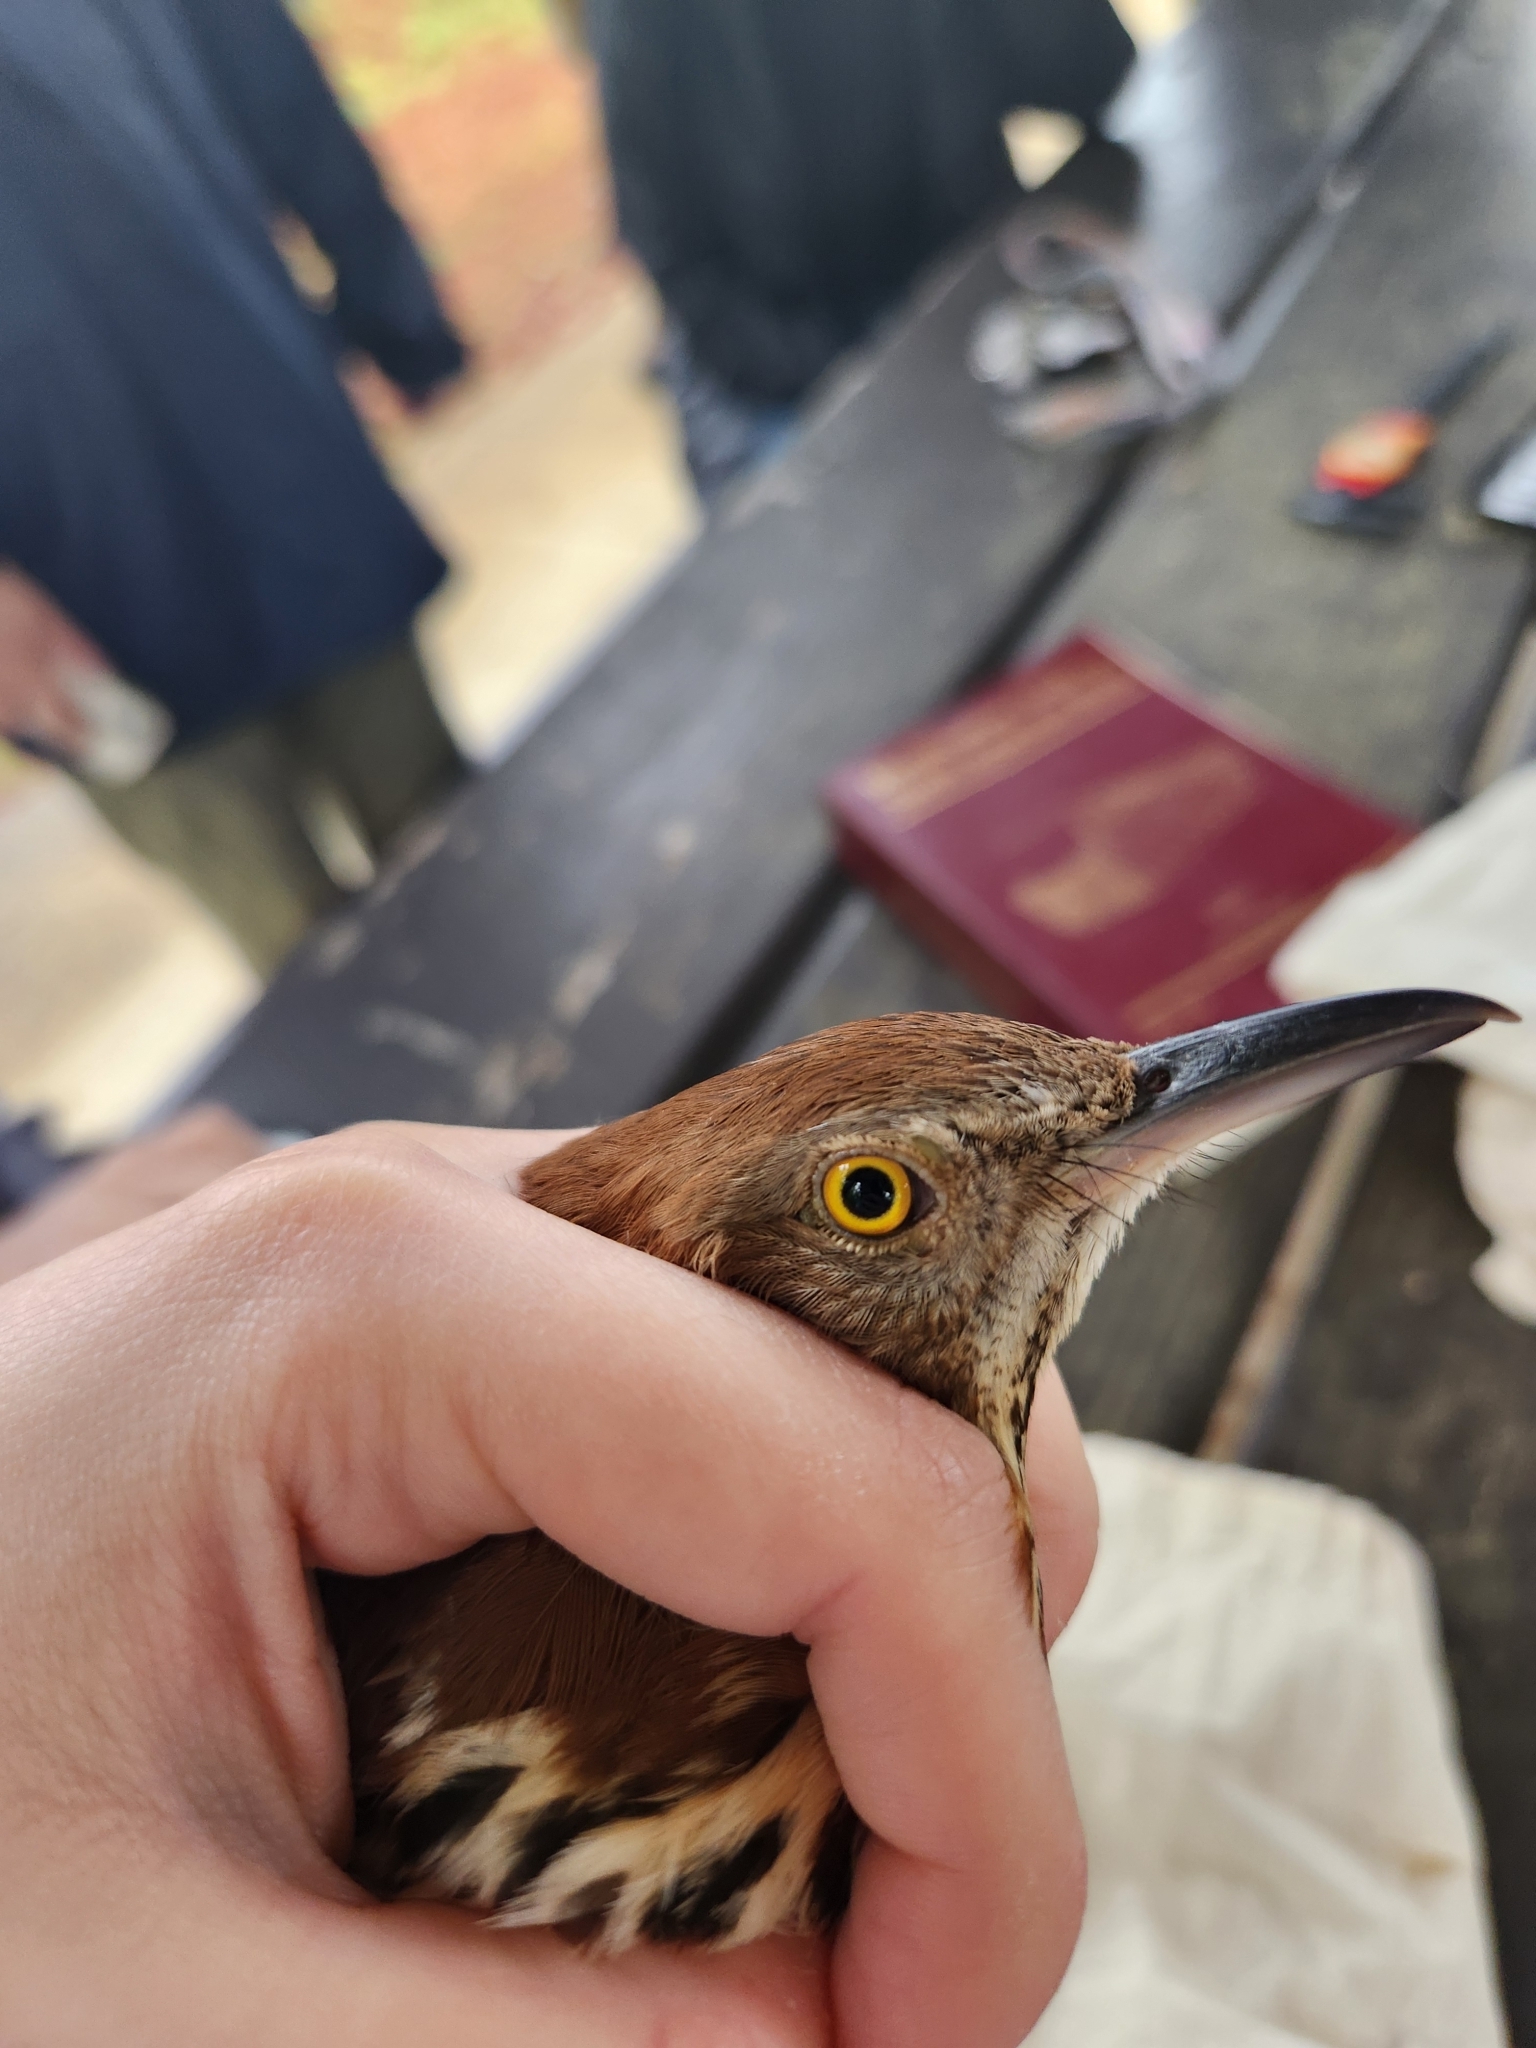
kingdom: Animalia
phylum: Chordata
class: Aves
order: Passeriformes
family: Mimidae
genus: Toxostoma
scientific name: Toxostoma rufum
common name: Brown thrasher
